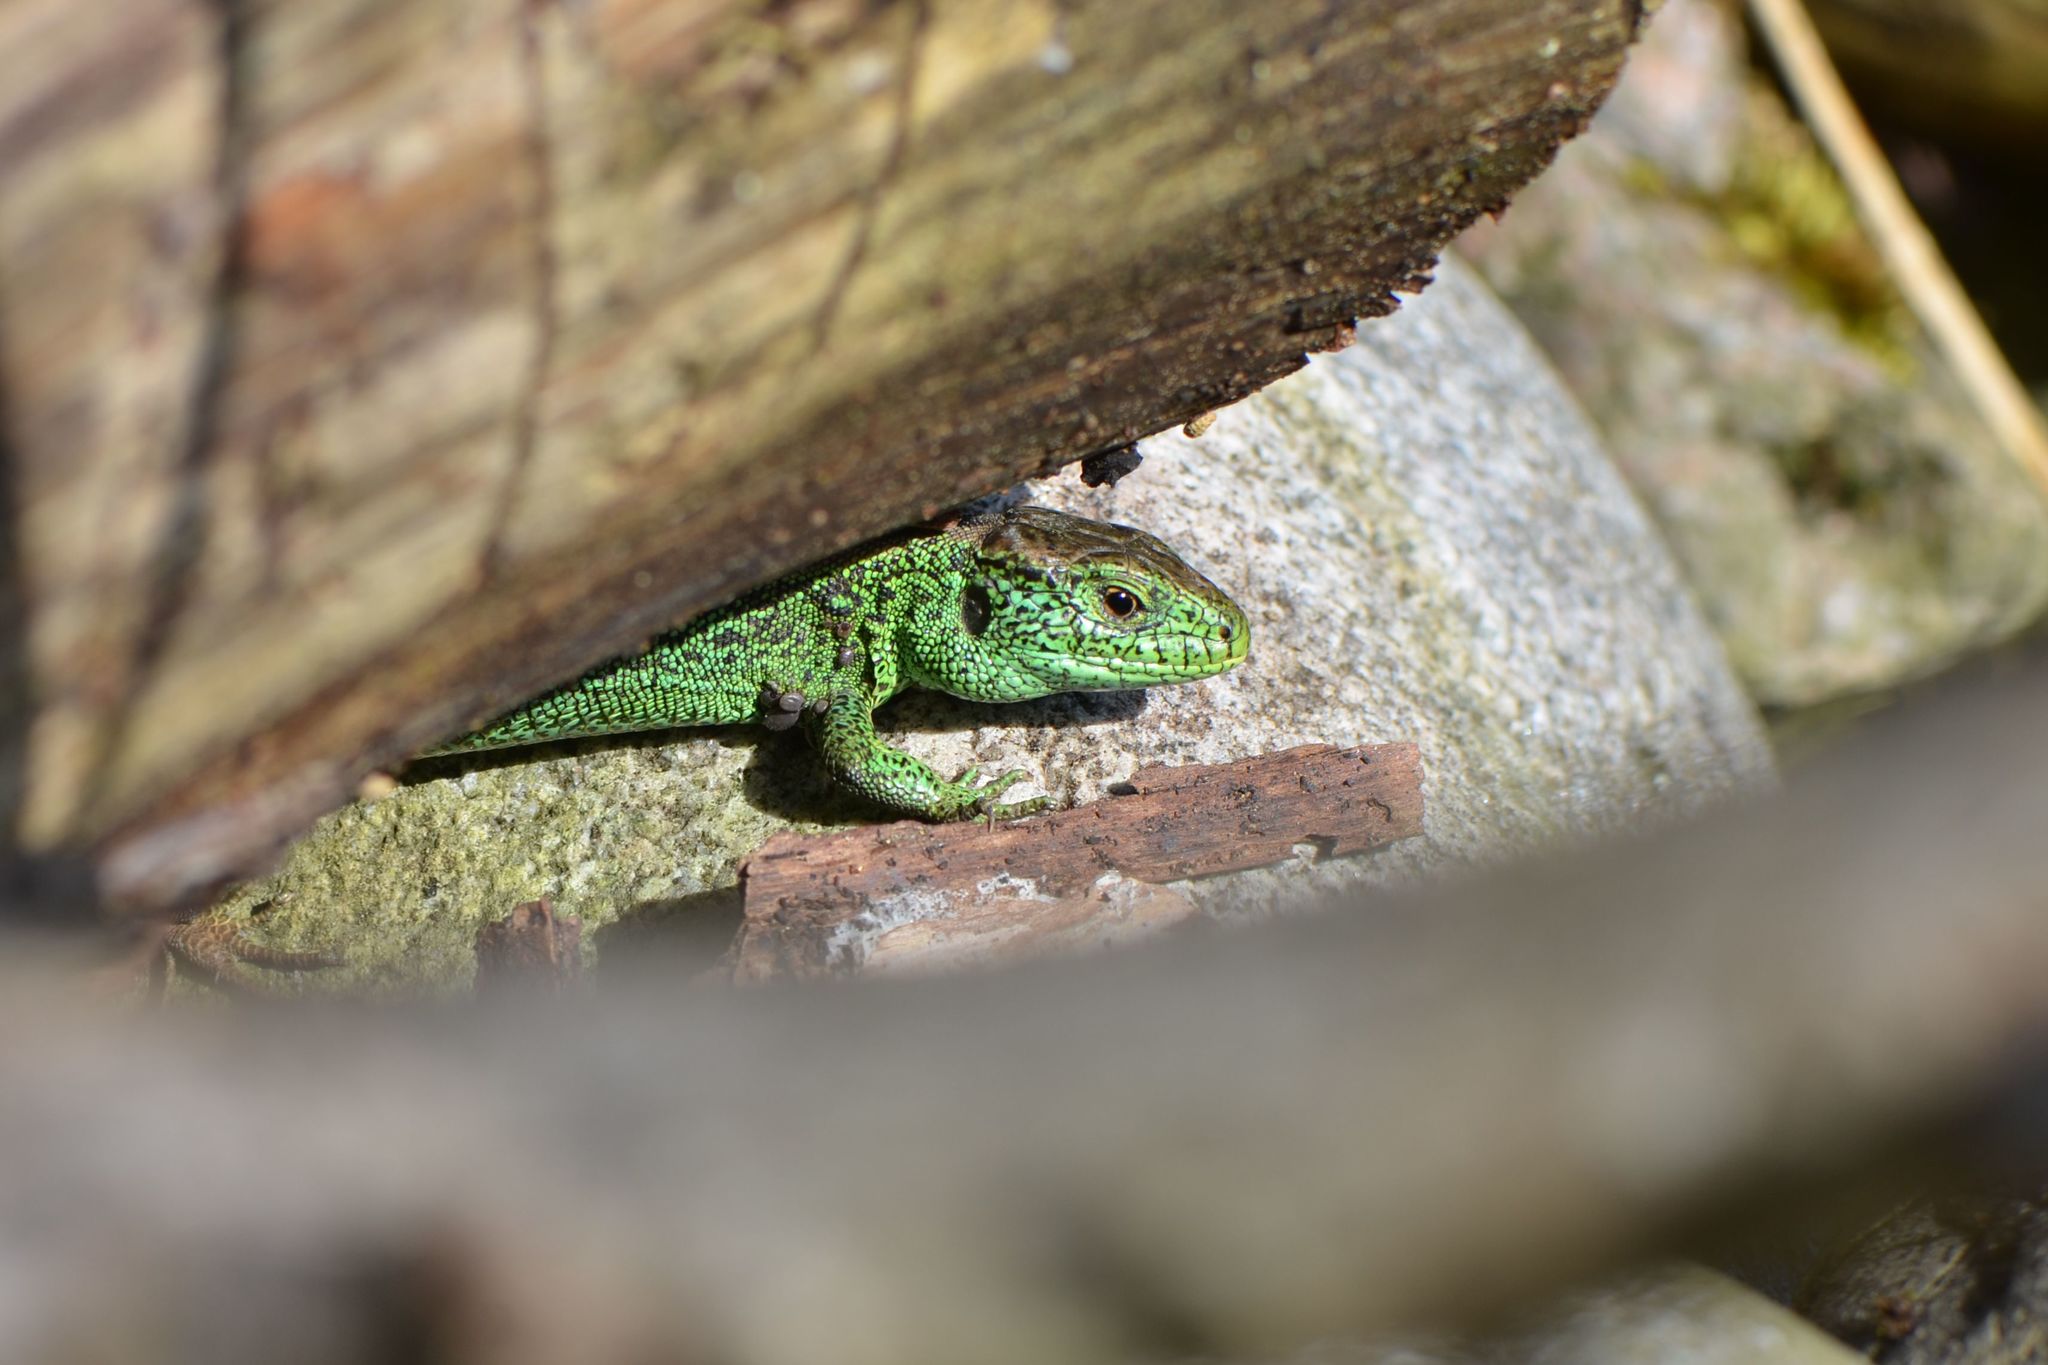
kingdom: Animalia
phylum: Chordata
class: Squamata
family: Lacertidae
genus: Lacerta
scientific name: Lacerta agilis
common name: Sand lizard
